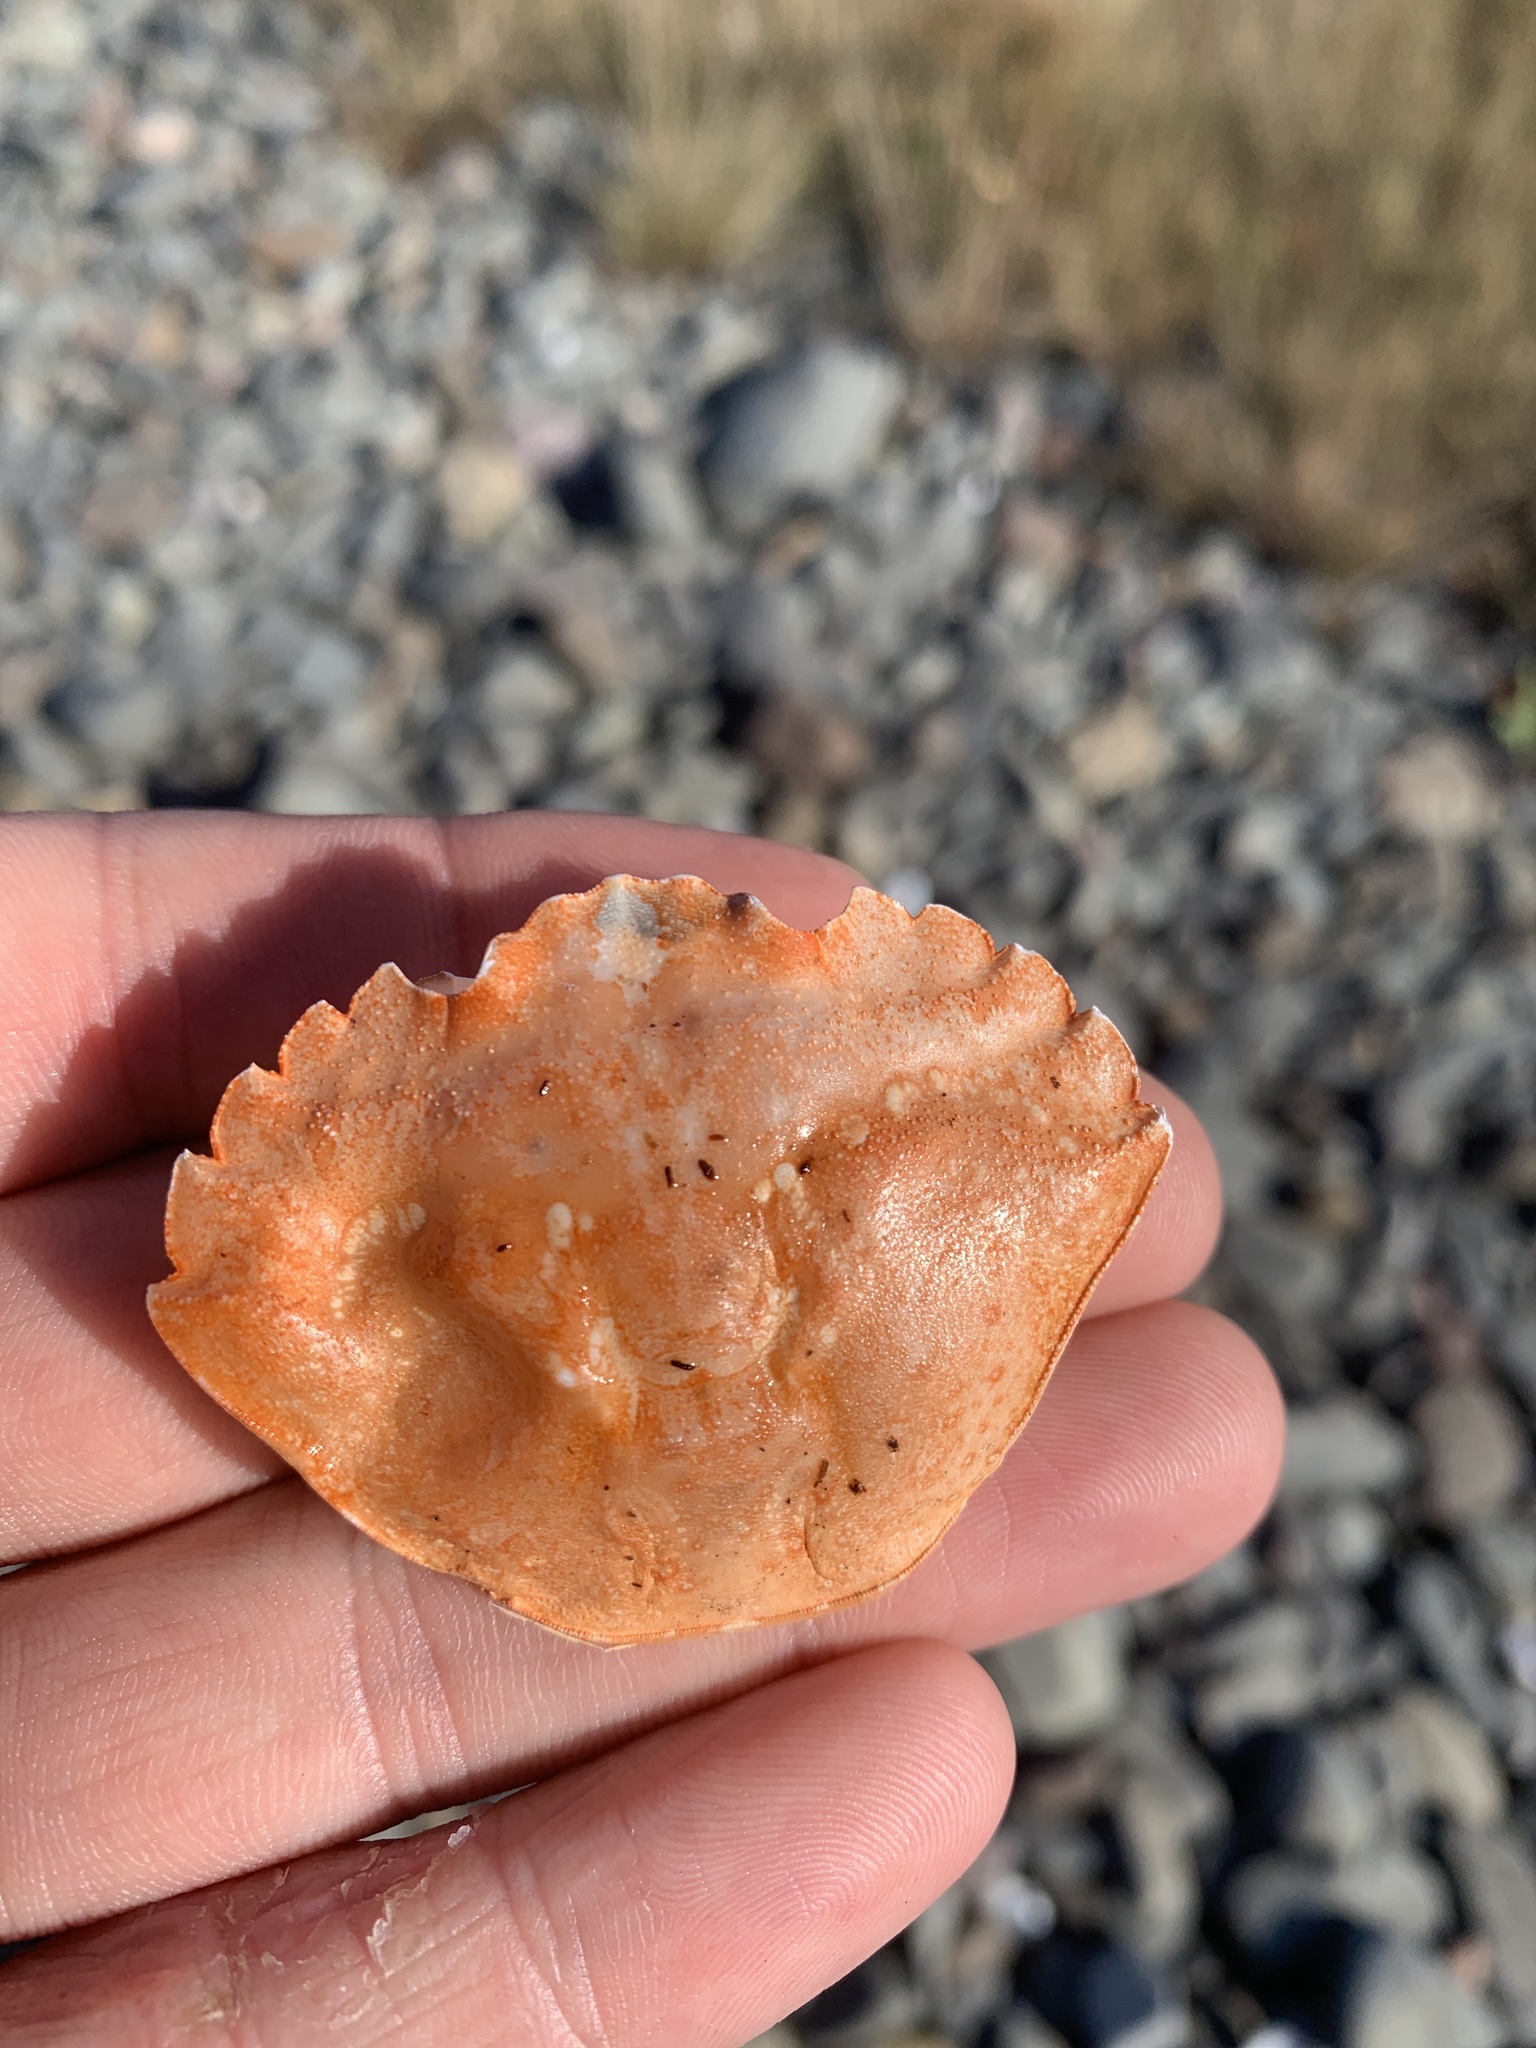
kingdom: Animalia
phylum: Arthropoda
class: Malacostraca
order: Decapoda
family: Carcinidae
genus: Carcinus
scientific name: Carcinus maenas
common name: European green crab
